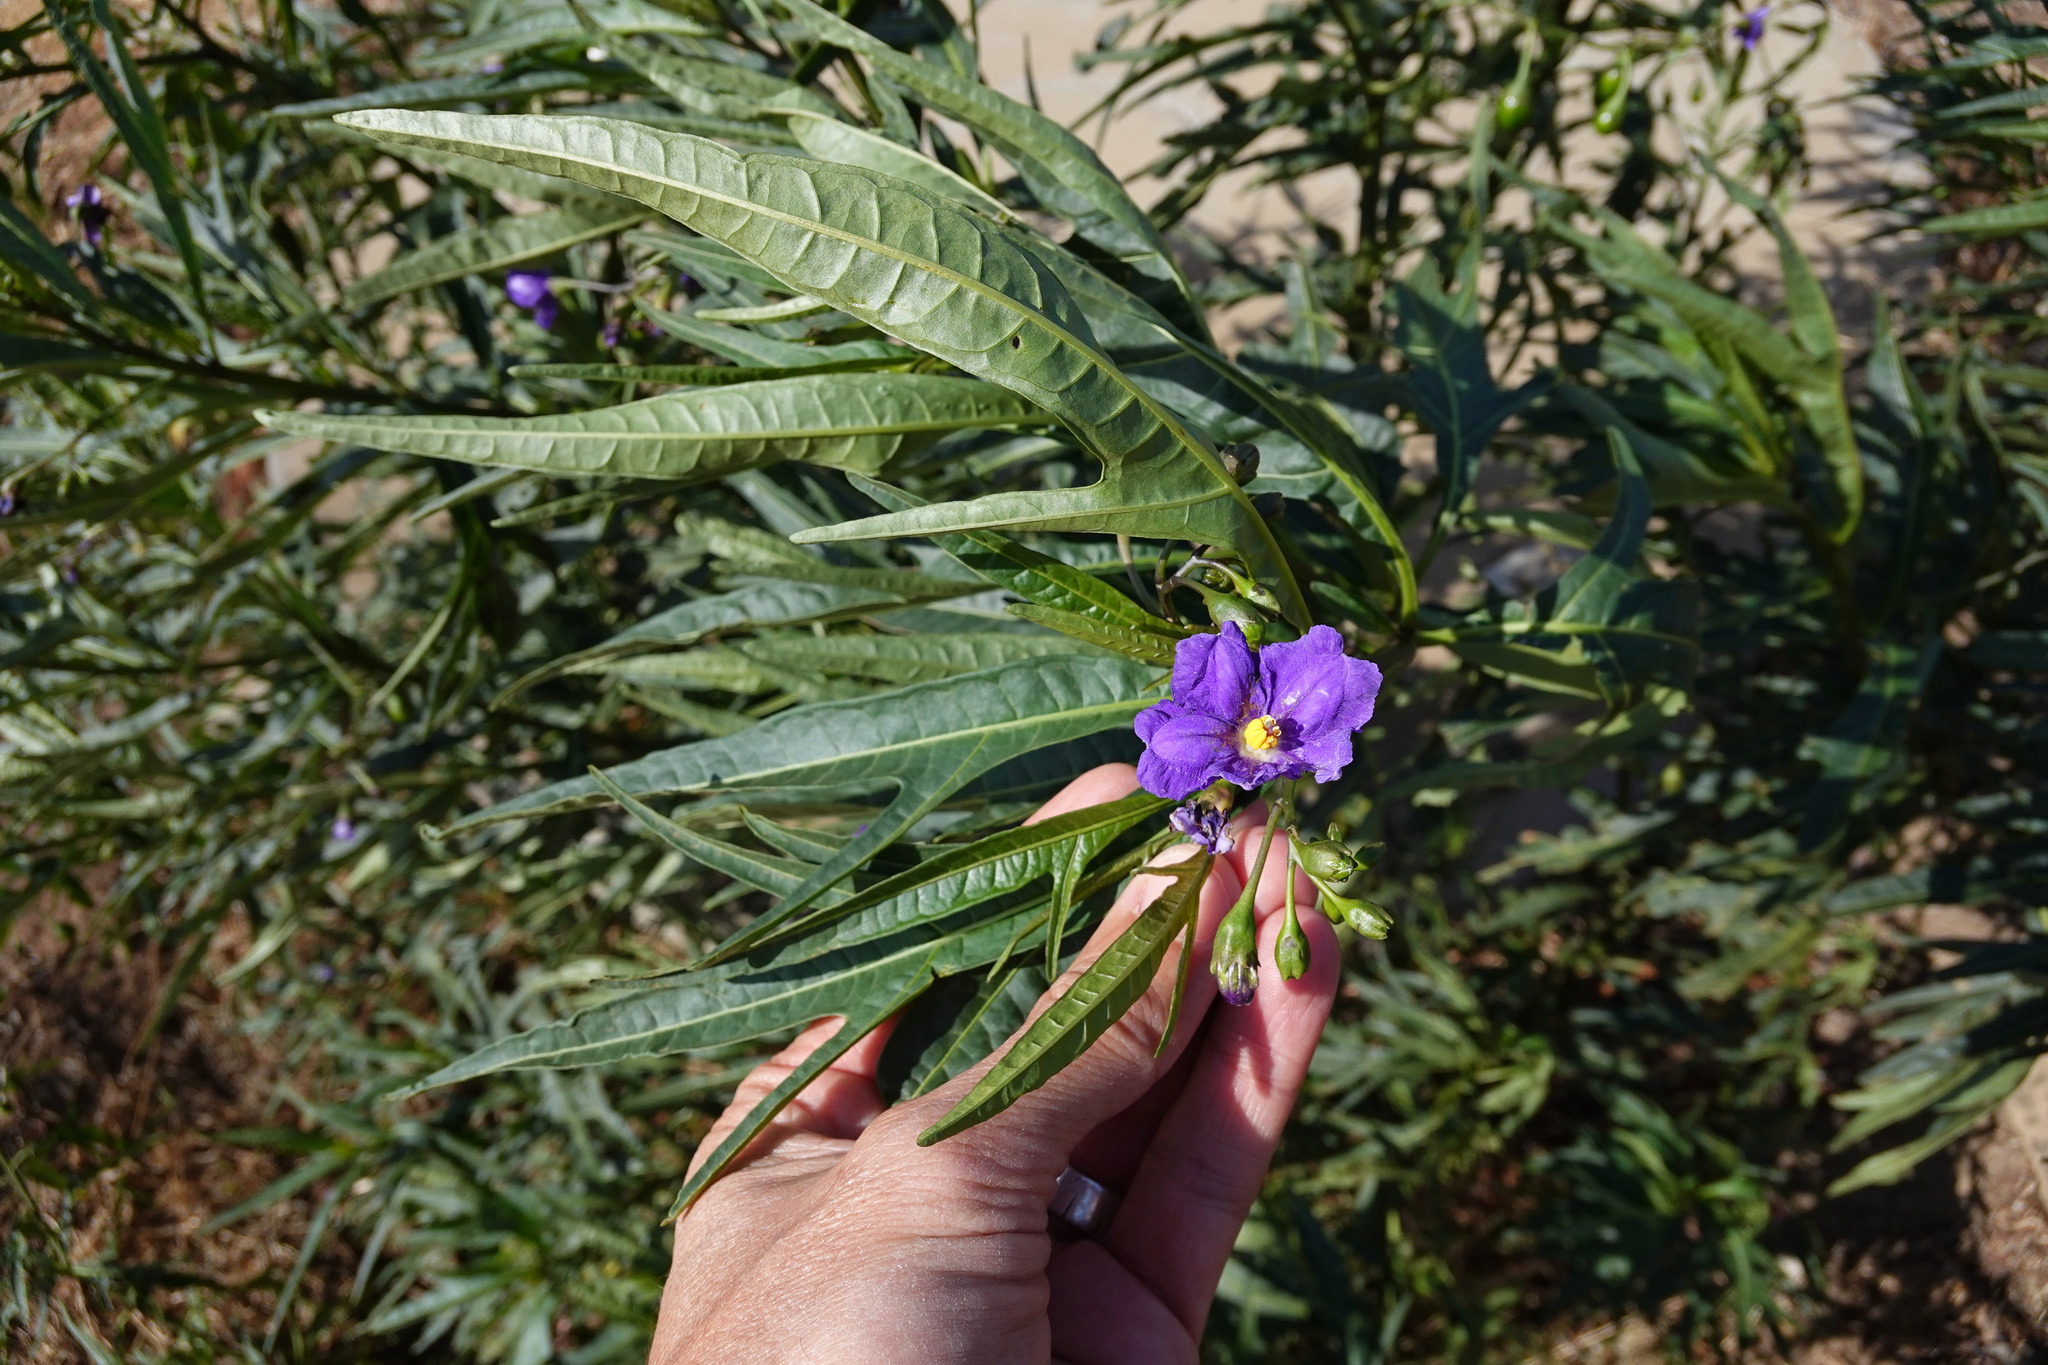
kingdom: Plantae
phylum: Tracheophyta
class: Magnoliopsida
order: Solanales
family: Solanaceae
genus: Solanum
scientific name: Solanum laciniatum
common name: Kangaroo-apple
